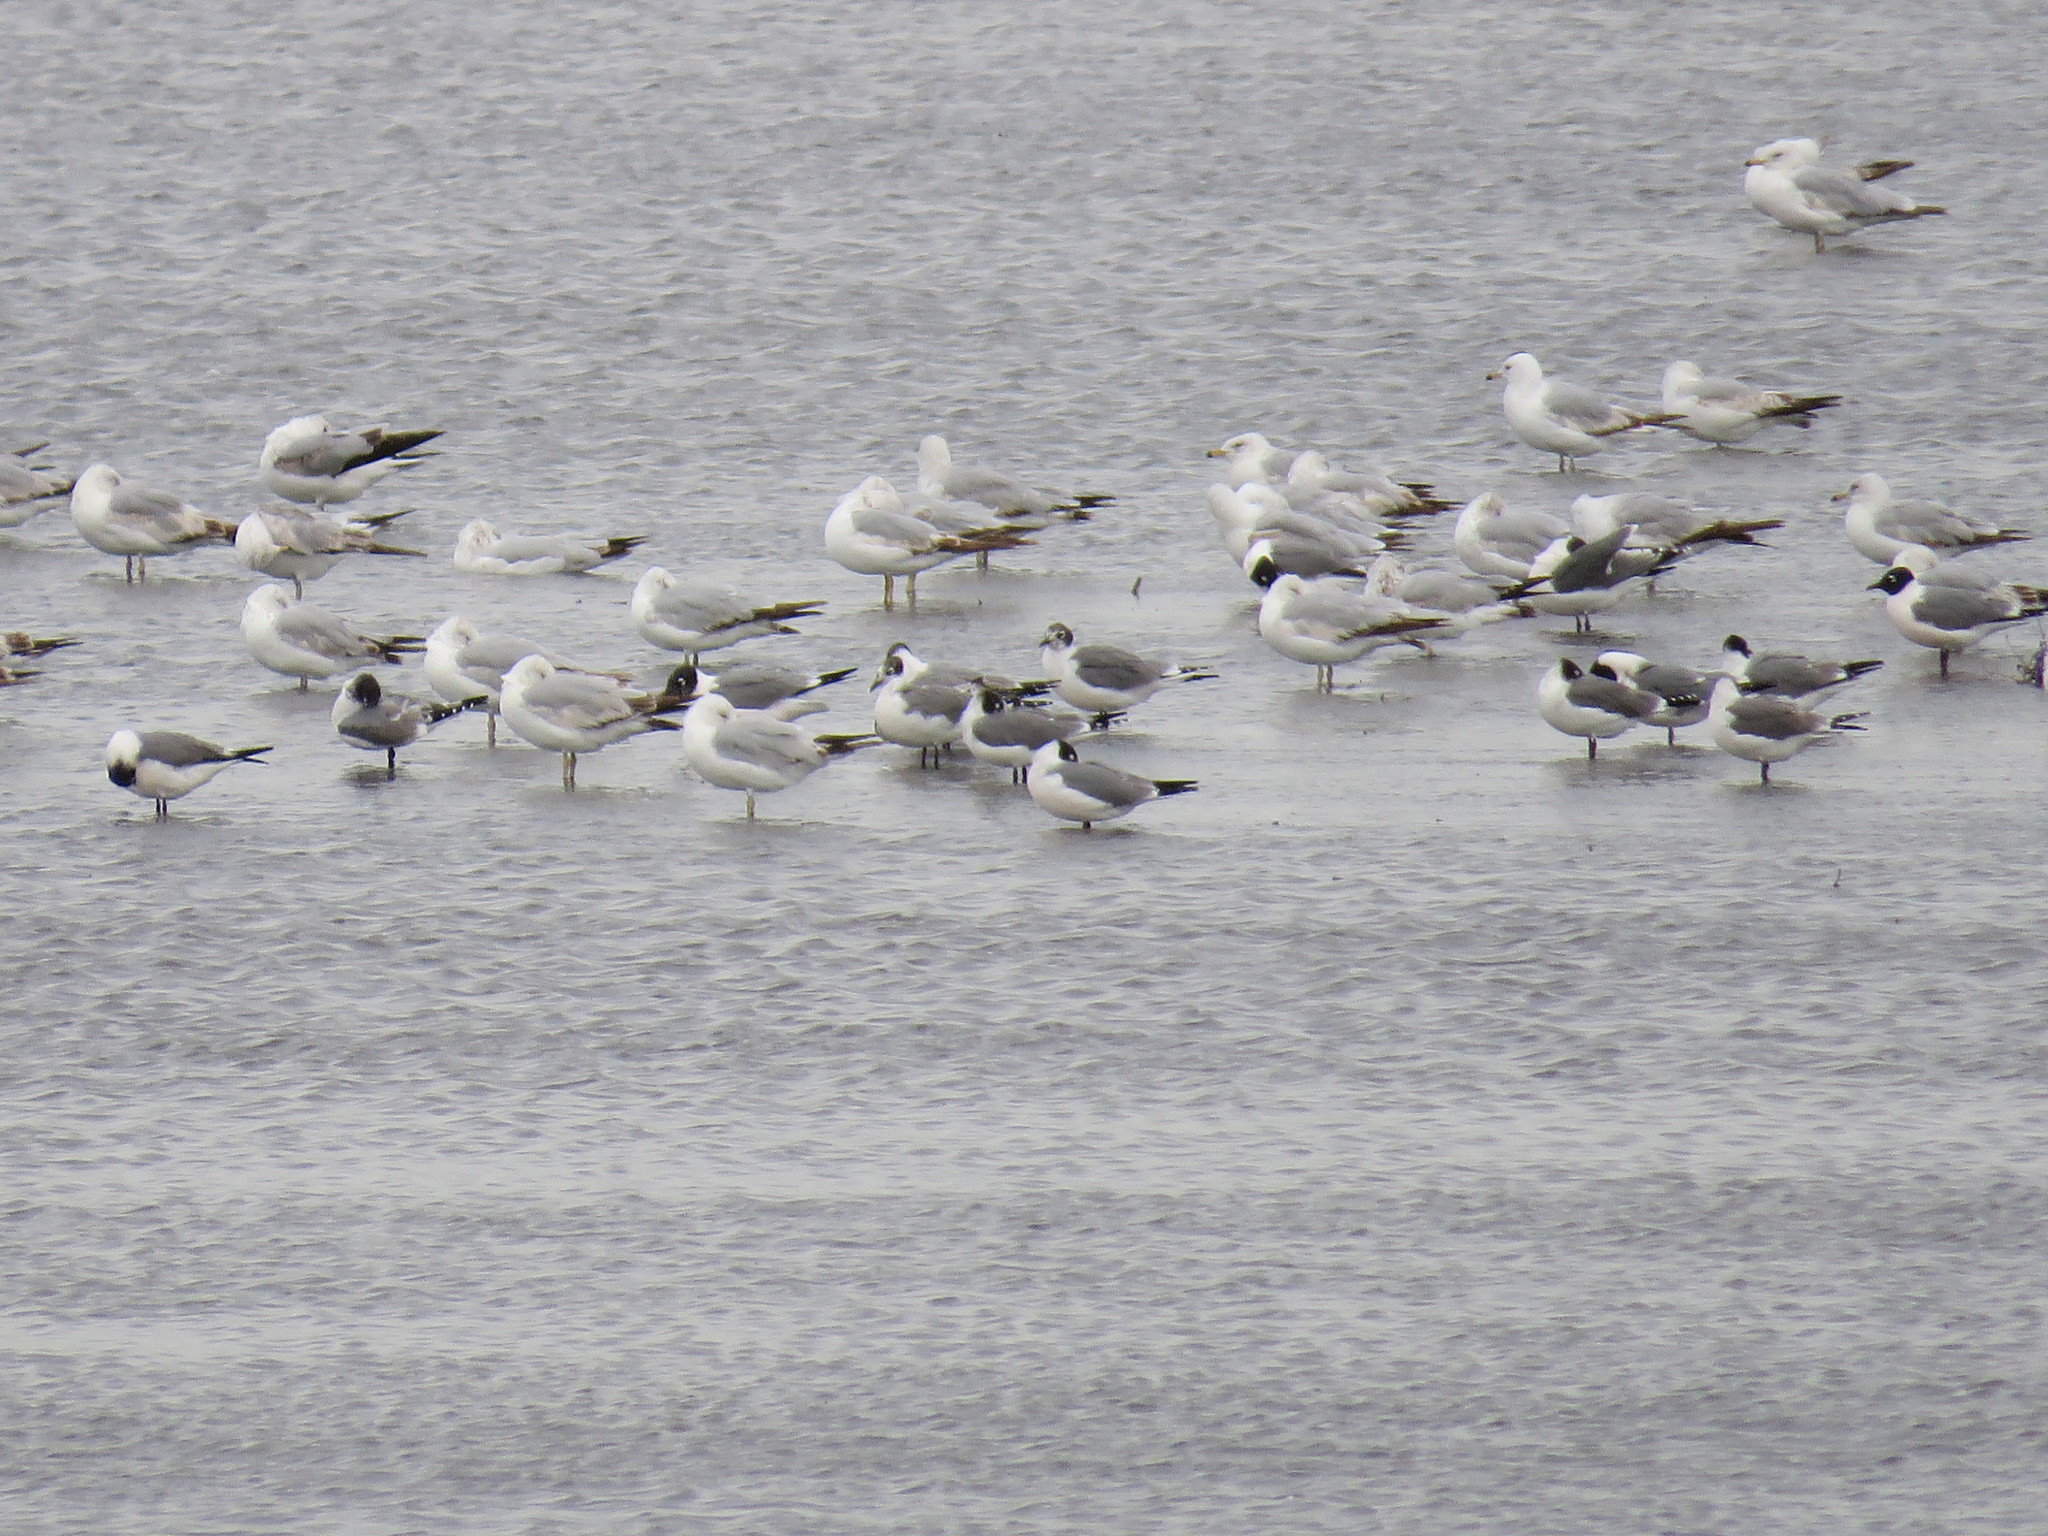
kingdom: Animalia
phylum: Chordata
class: Aves
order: Charadriiformes
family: Laridae
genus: Leucophaeus
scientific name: Leucophaeus pipixcan
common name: Franklin's gull
